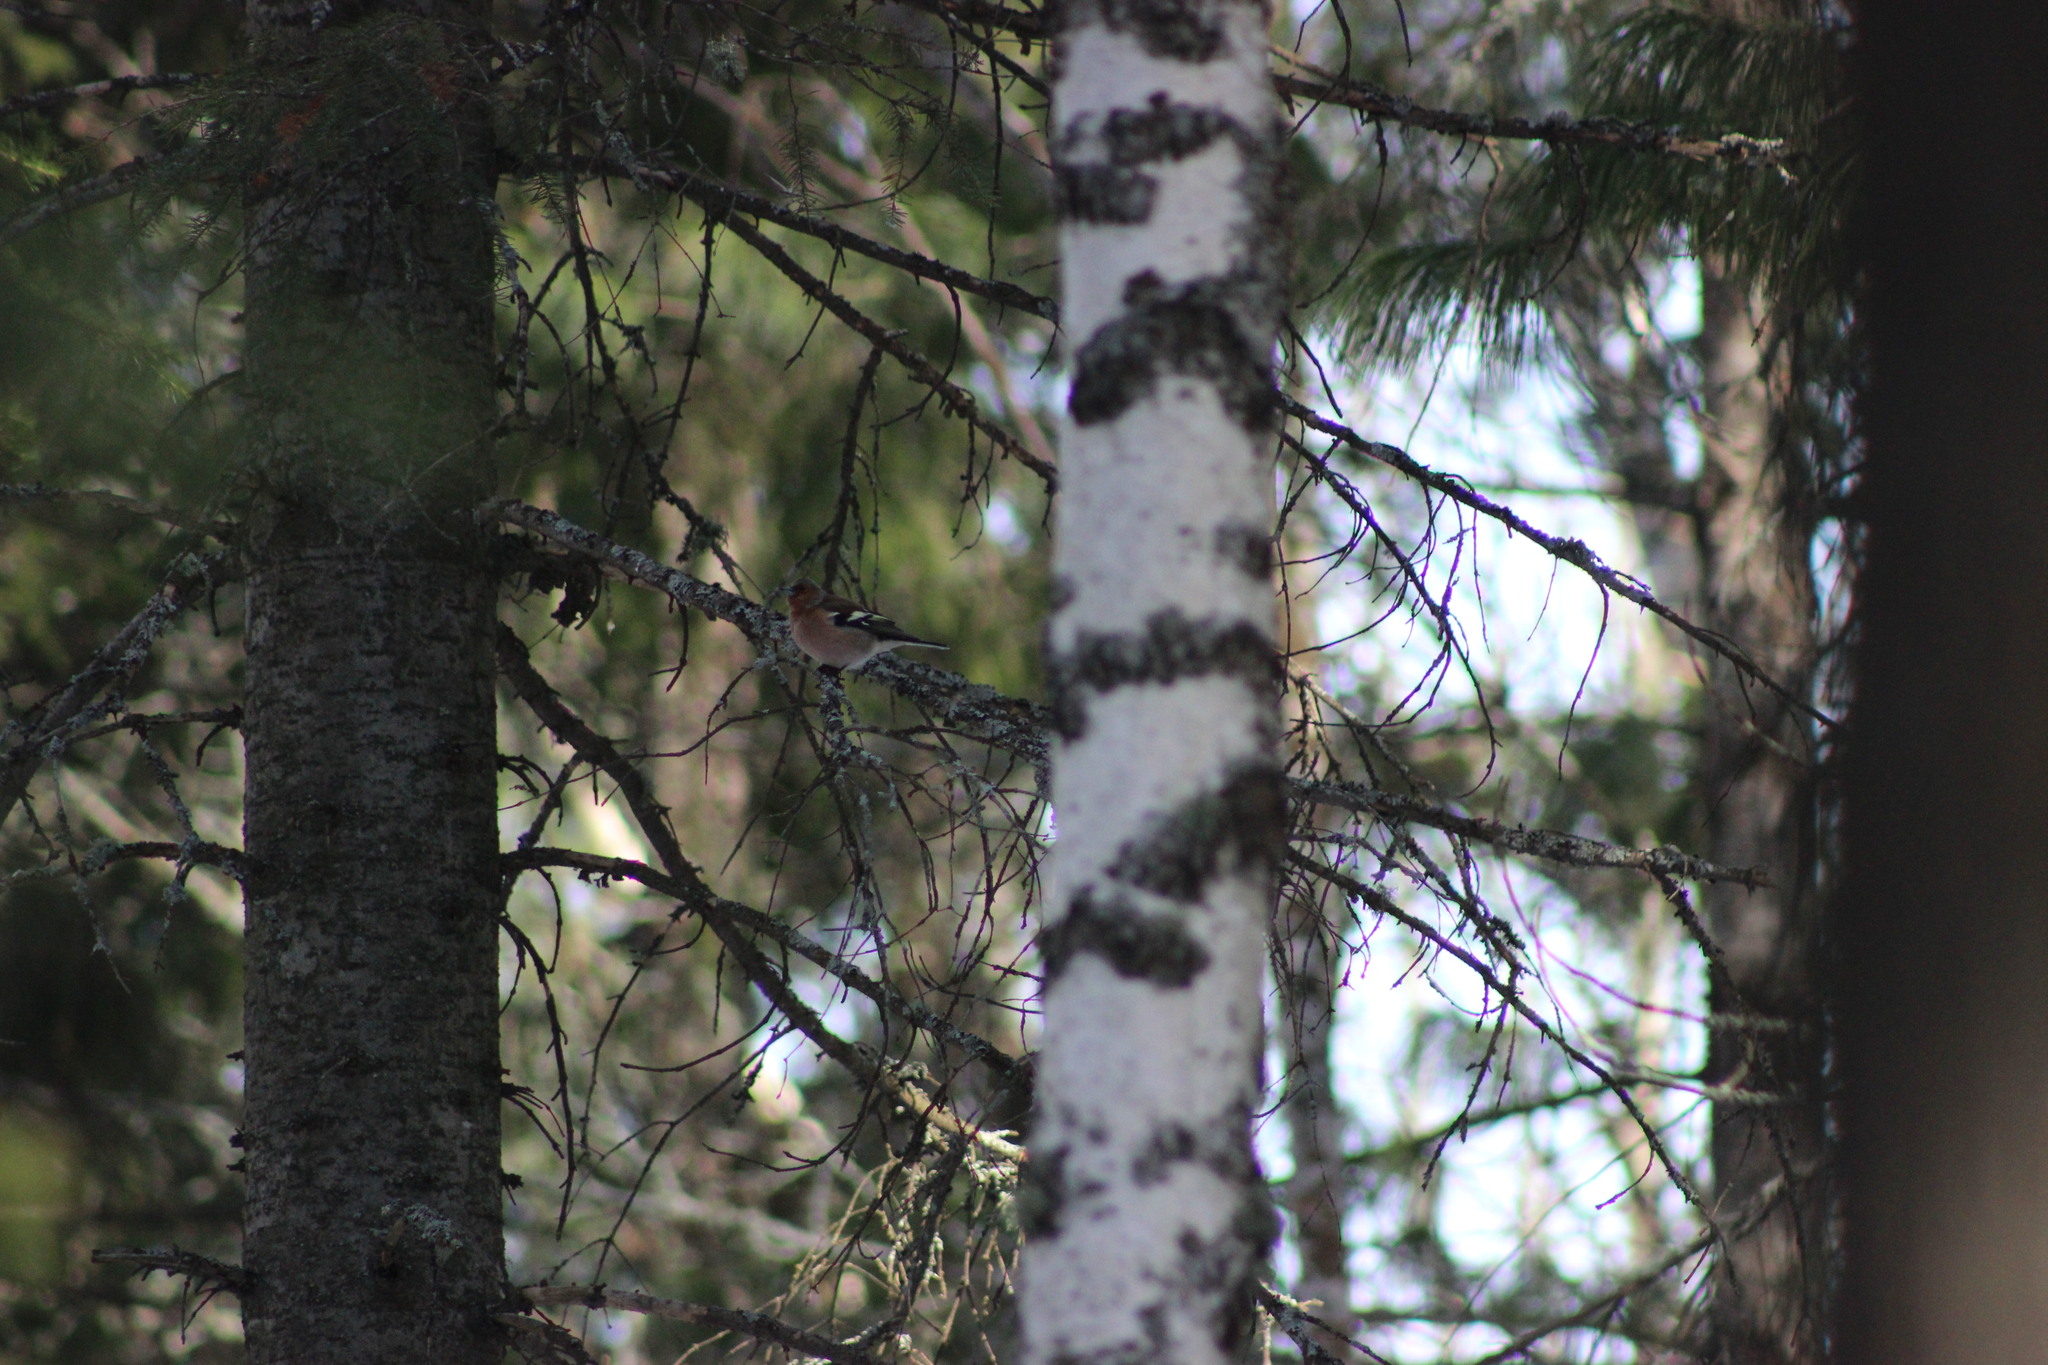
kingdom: Animalia
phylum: Chordata
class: Aves
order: Passeriformes
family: Fringillidae
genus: Fringilla
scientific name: Fringilla coelebs
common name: Common chaffinch
